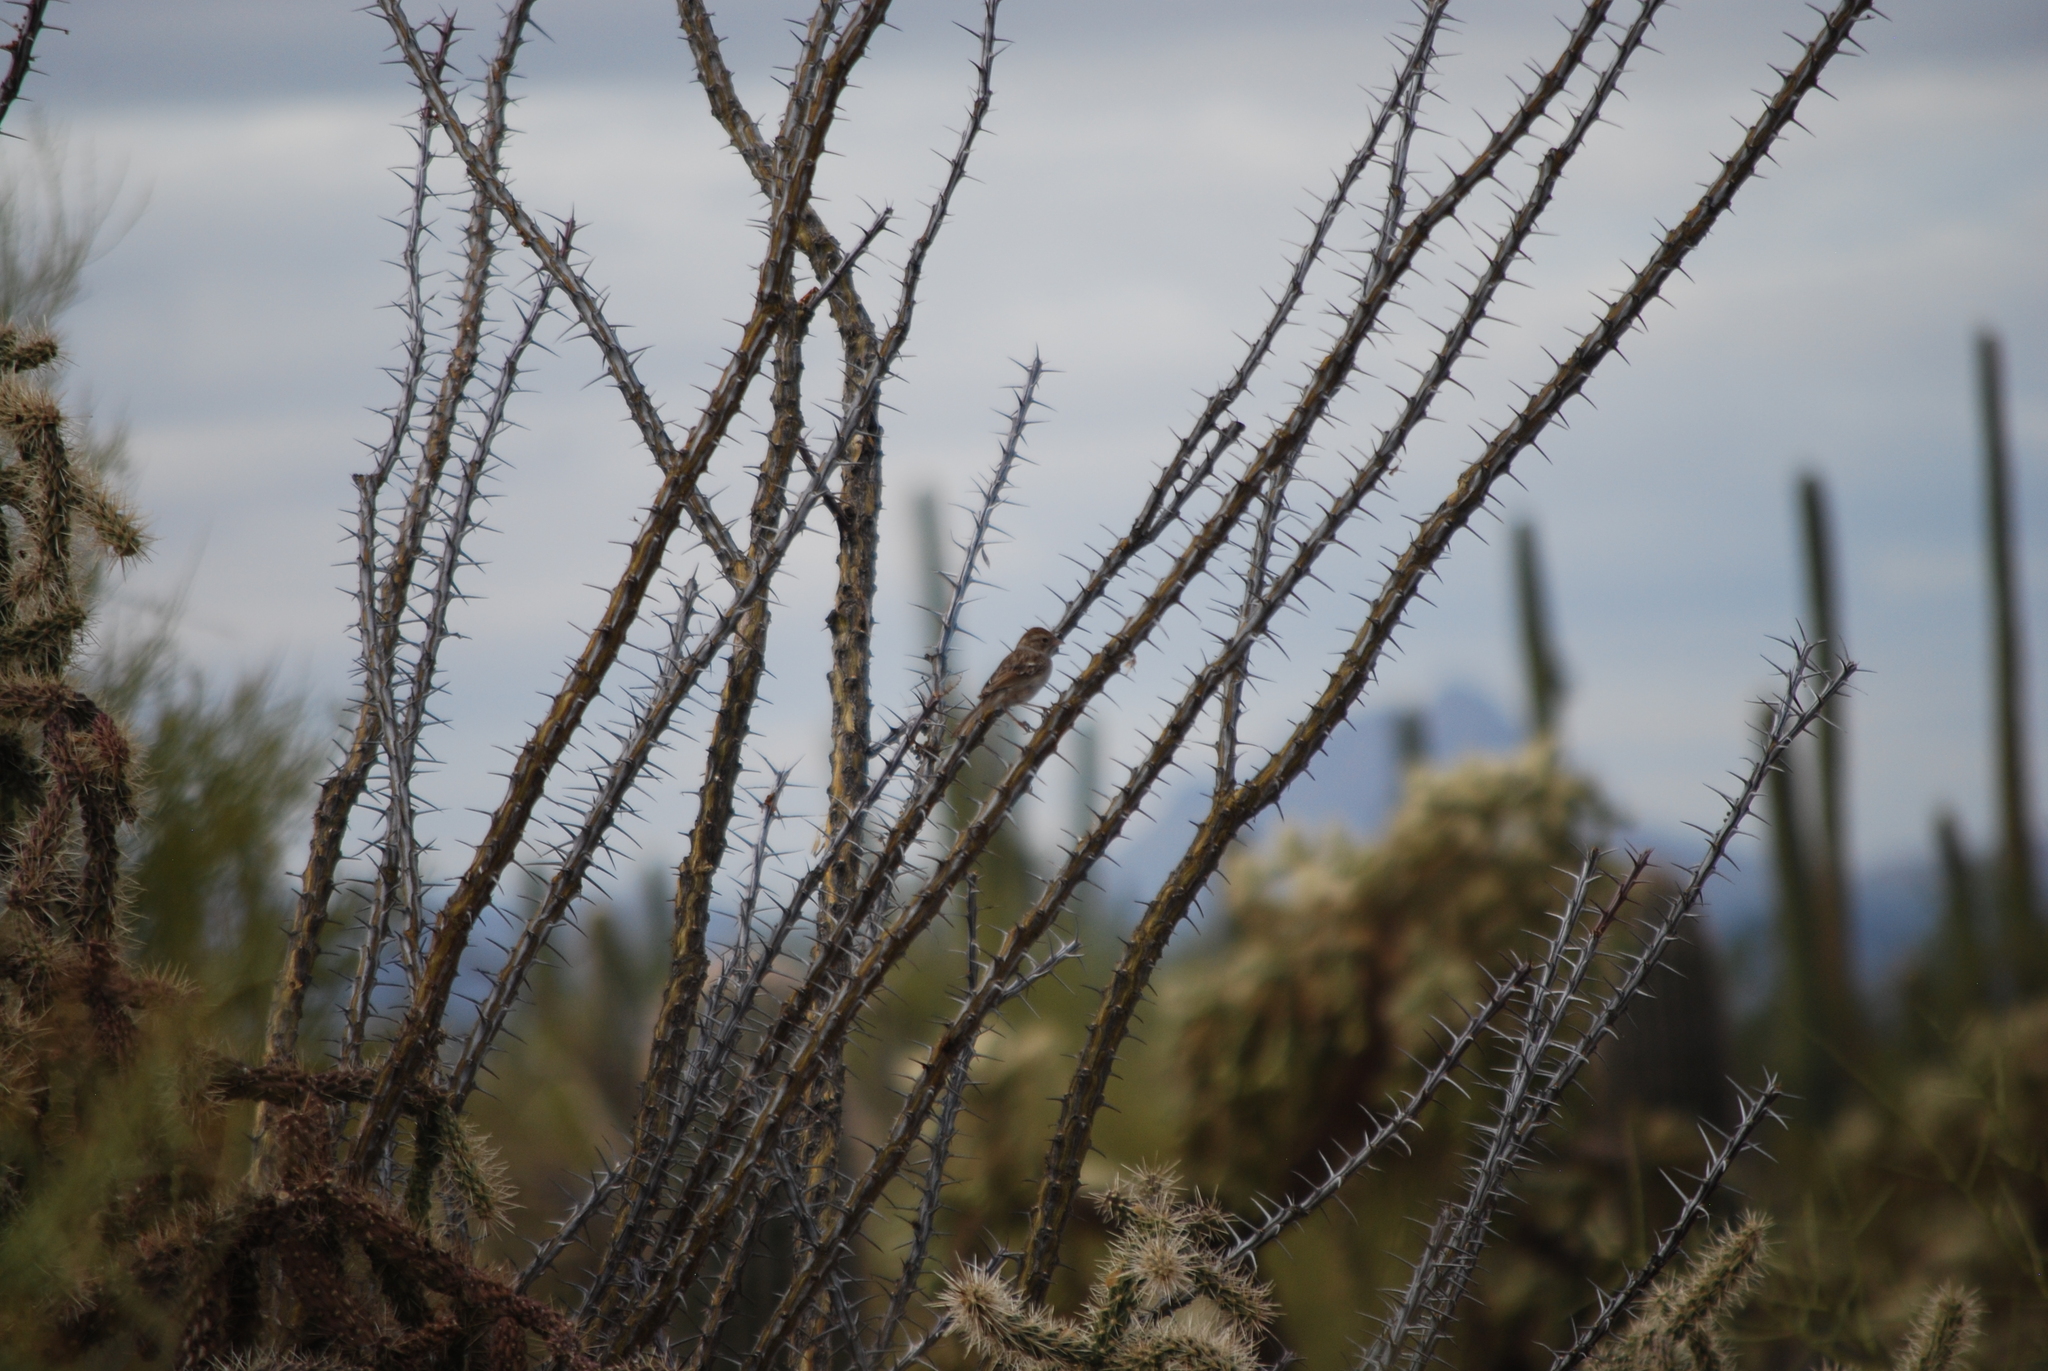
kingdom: Animalia
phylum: Chordata
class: Aves
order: Passeriformes
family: Passerellidae
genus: Peucaea
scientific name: Peucaea carpalis
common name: Rufous-winged sparrow
